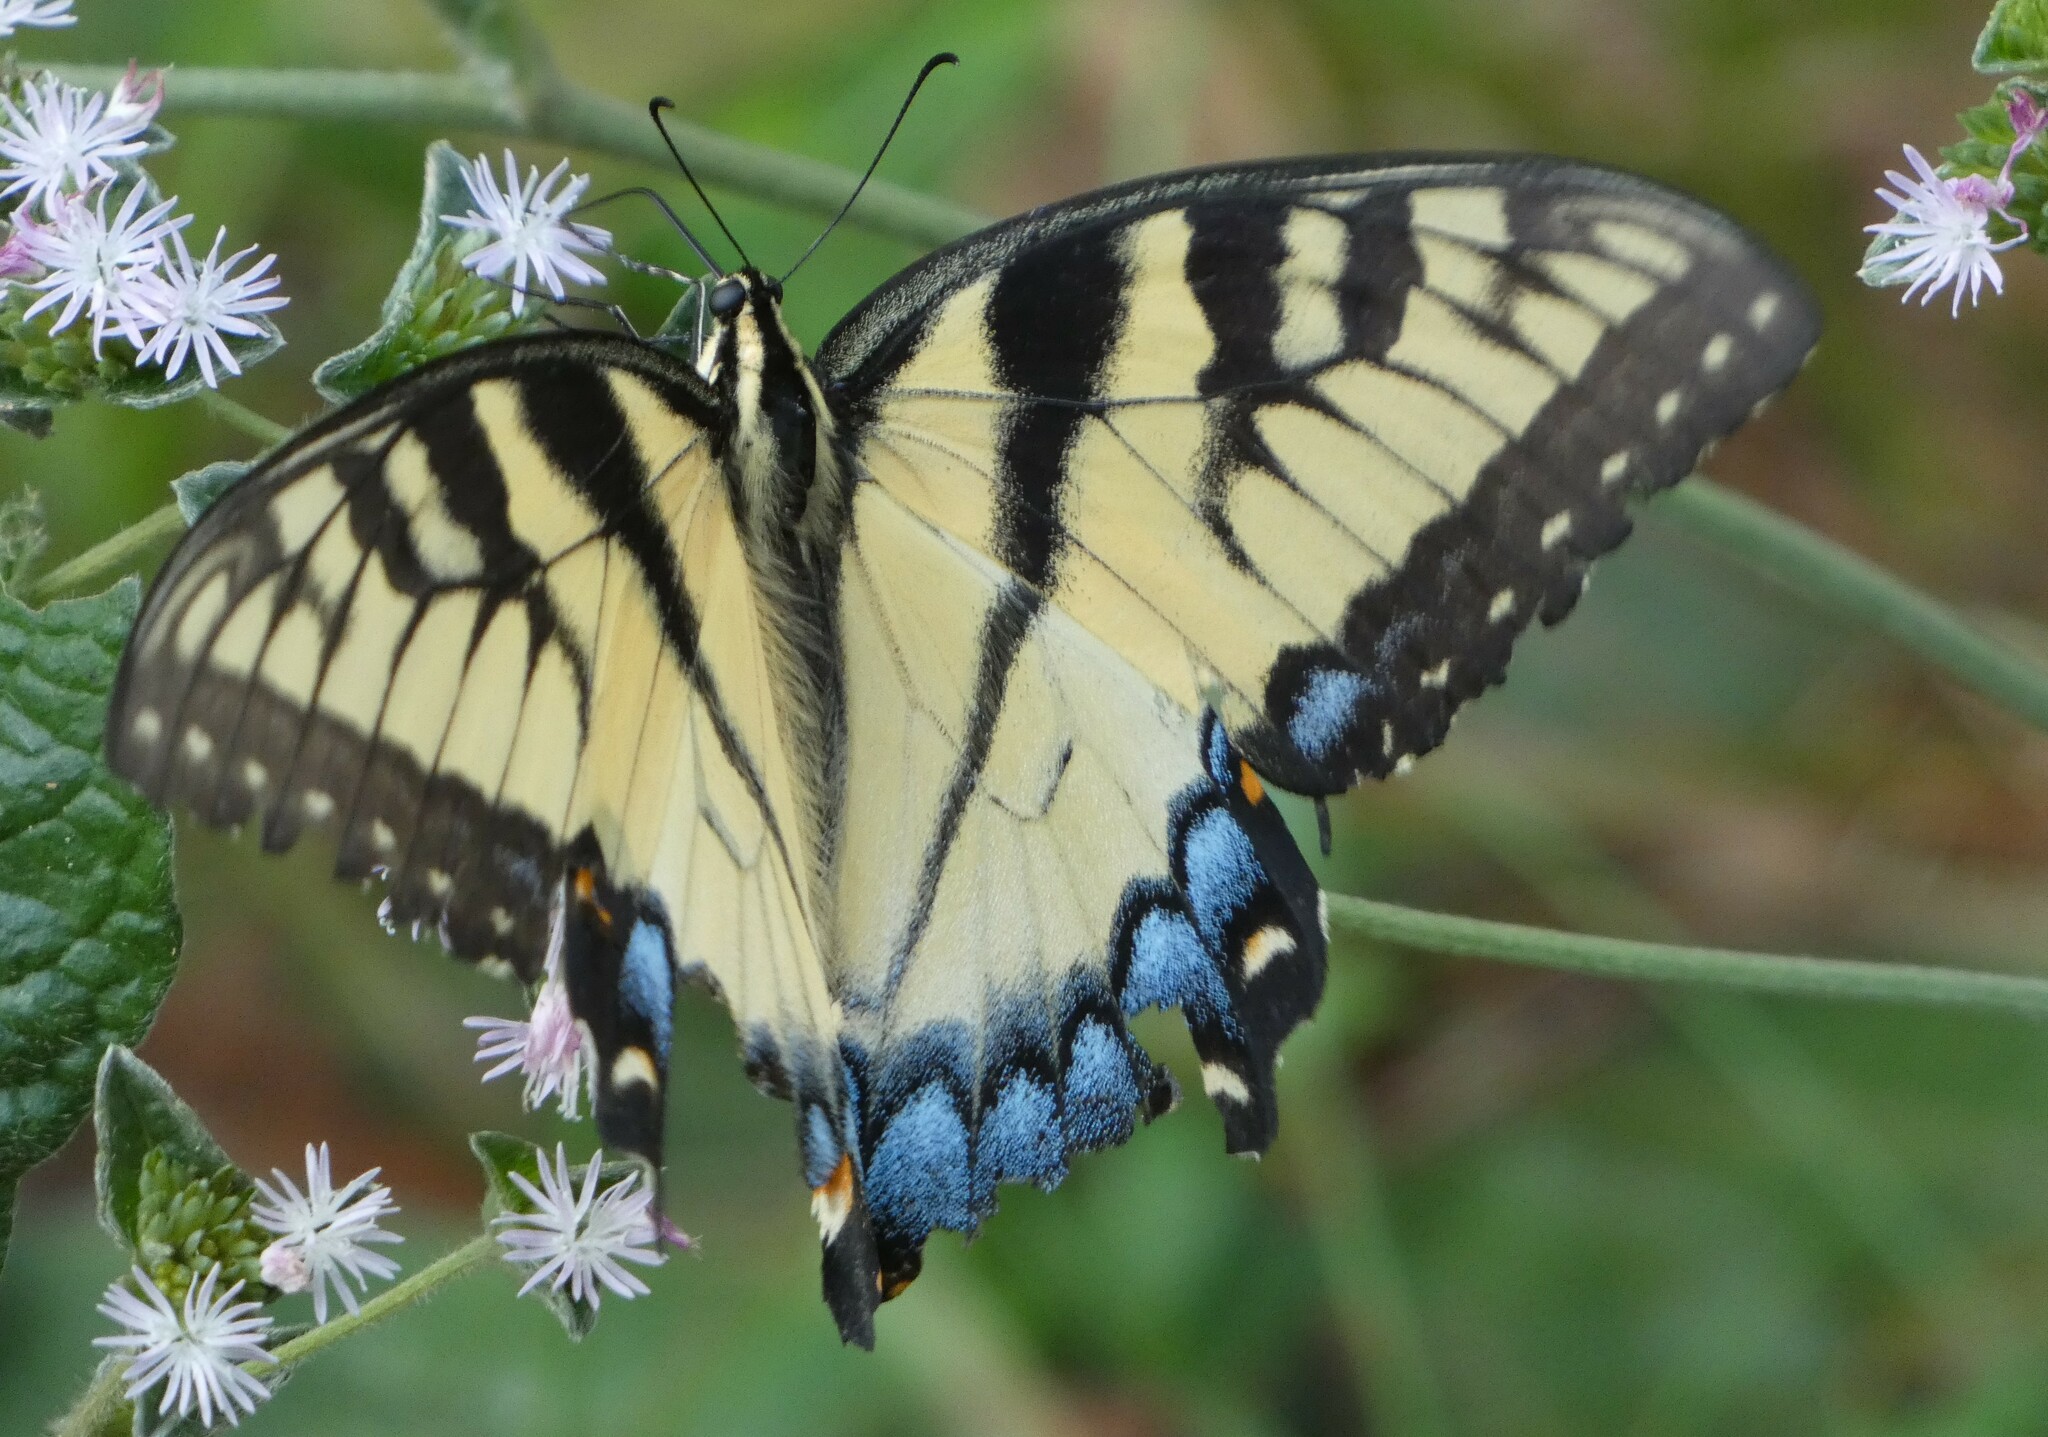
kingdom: Animalia
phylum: Arthropoda
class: Insecta
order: Lepidoptera
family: Papilionidae
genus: Papilio
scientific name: Papilio glaucus
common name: Tiger swallowtail
